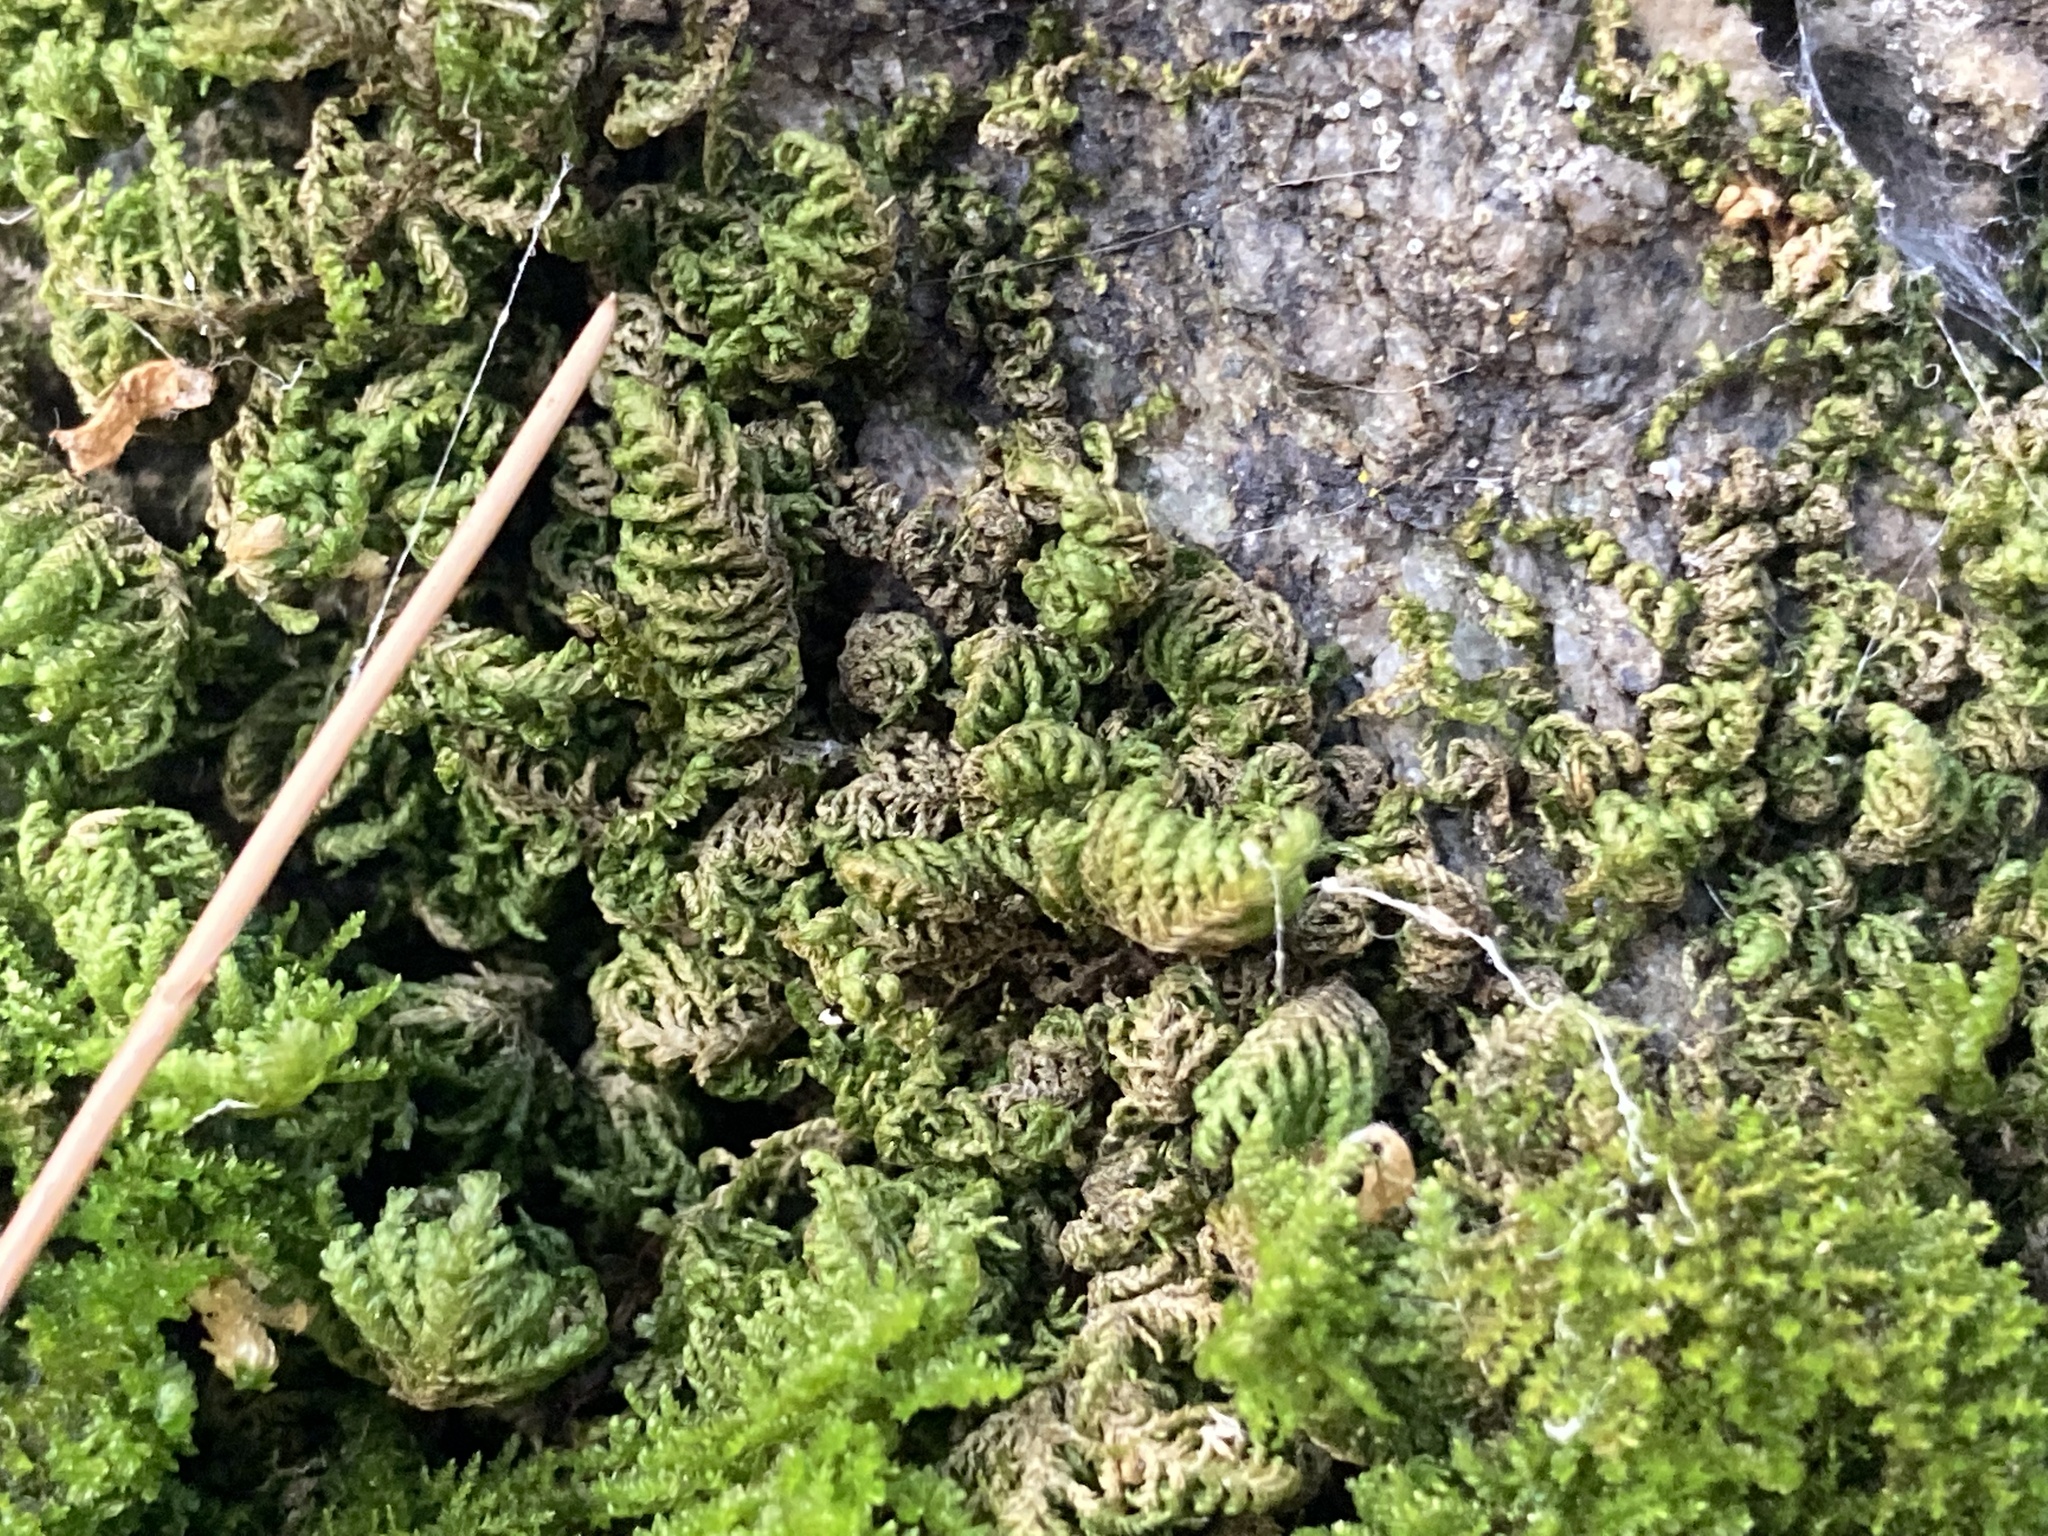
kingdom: Plantae
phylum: Bryophyta
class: Bryopsida
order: Hypnales
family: Neckeraceae
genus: Leptodon
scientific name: Leptodon smithii
